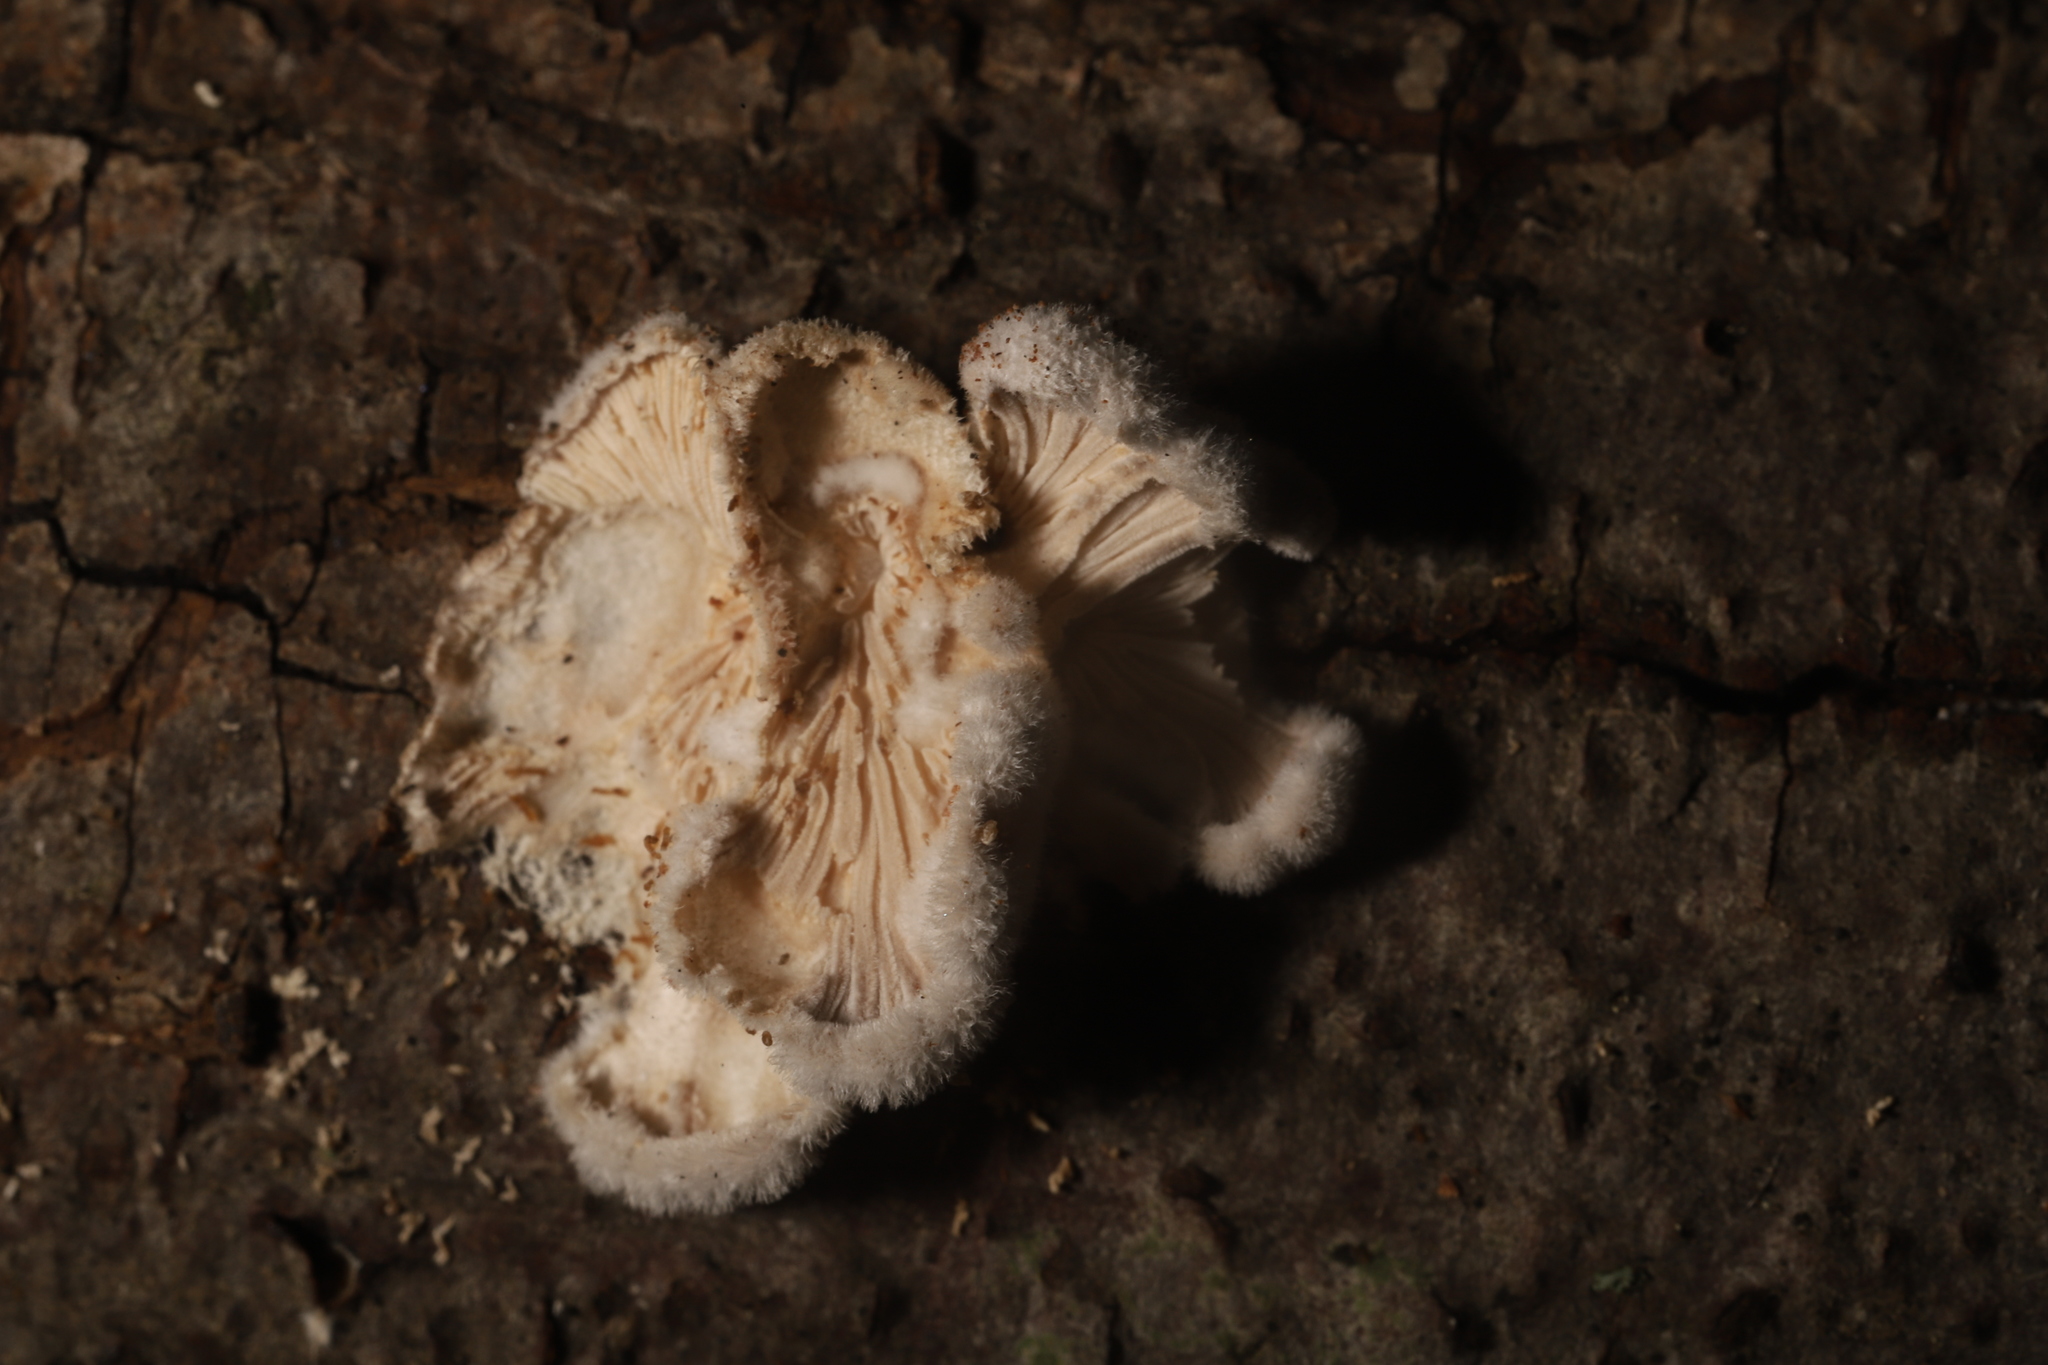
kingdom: Fungi
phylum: Basidiomycota
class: Agaricomycetes
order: Agaricales
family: Schizophyllaceae
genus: Schizophyllum
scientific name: Schizophyllum commune
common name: Common porecrust
